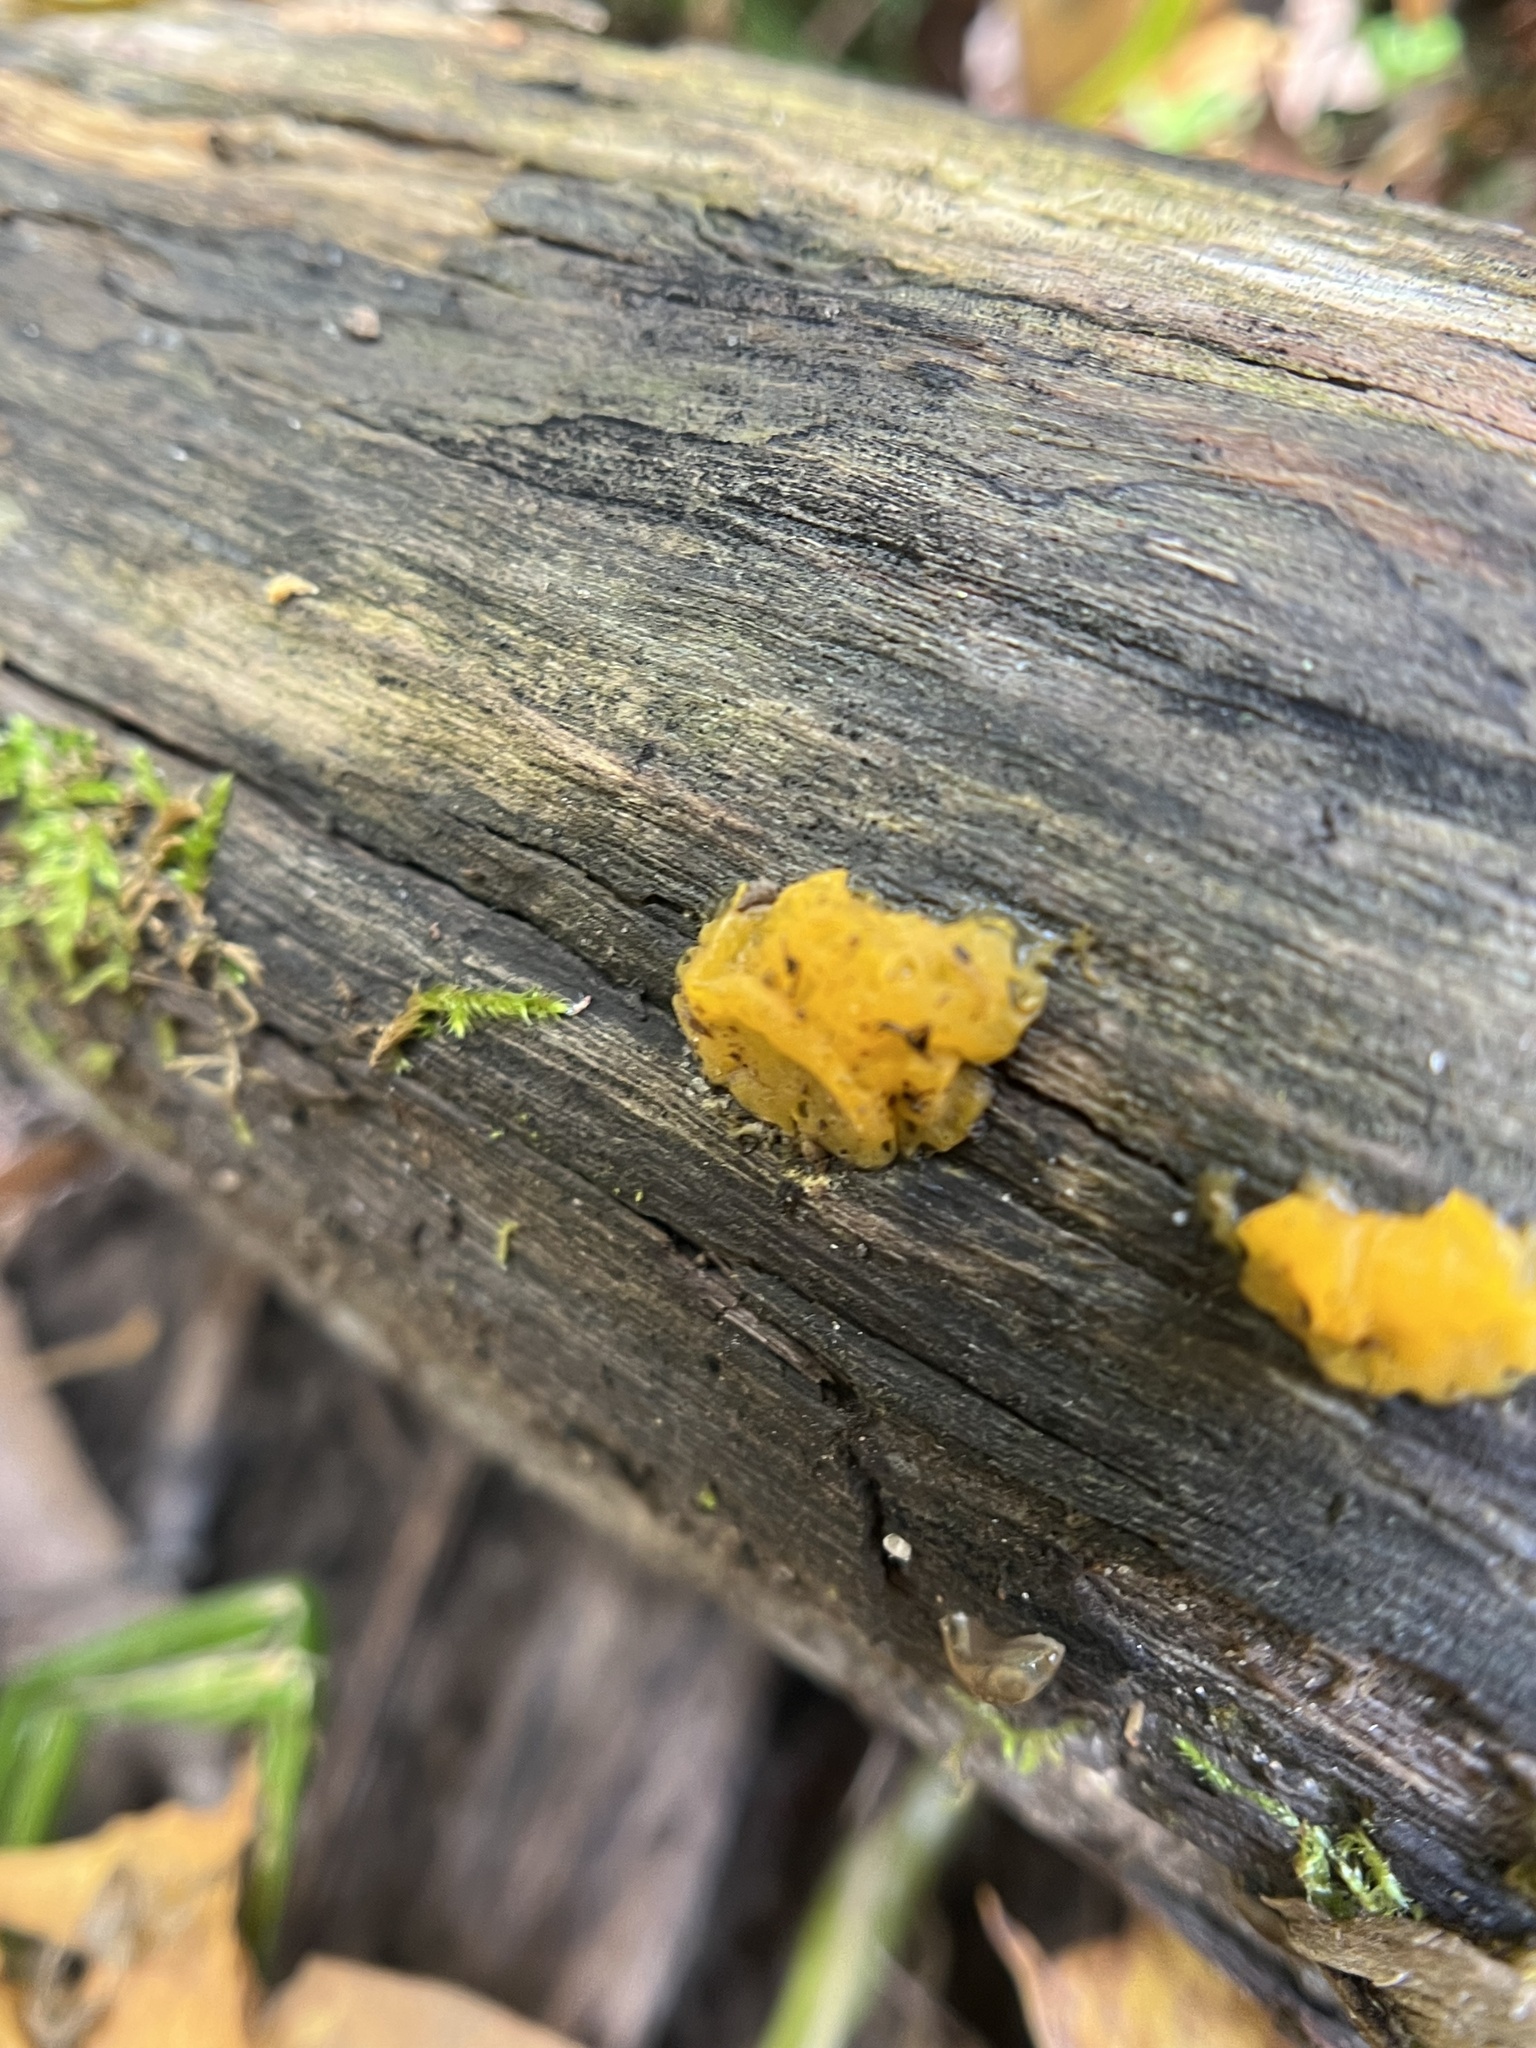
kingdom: Fungi
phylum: Basidiomycota
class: Dacrymycetes
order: Dacrymycetales
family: Dacrymycetaceae
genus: Dacrymyces
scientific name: Dacrymyces chrysospermus
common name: Orange jelly spot
